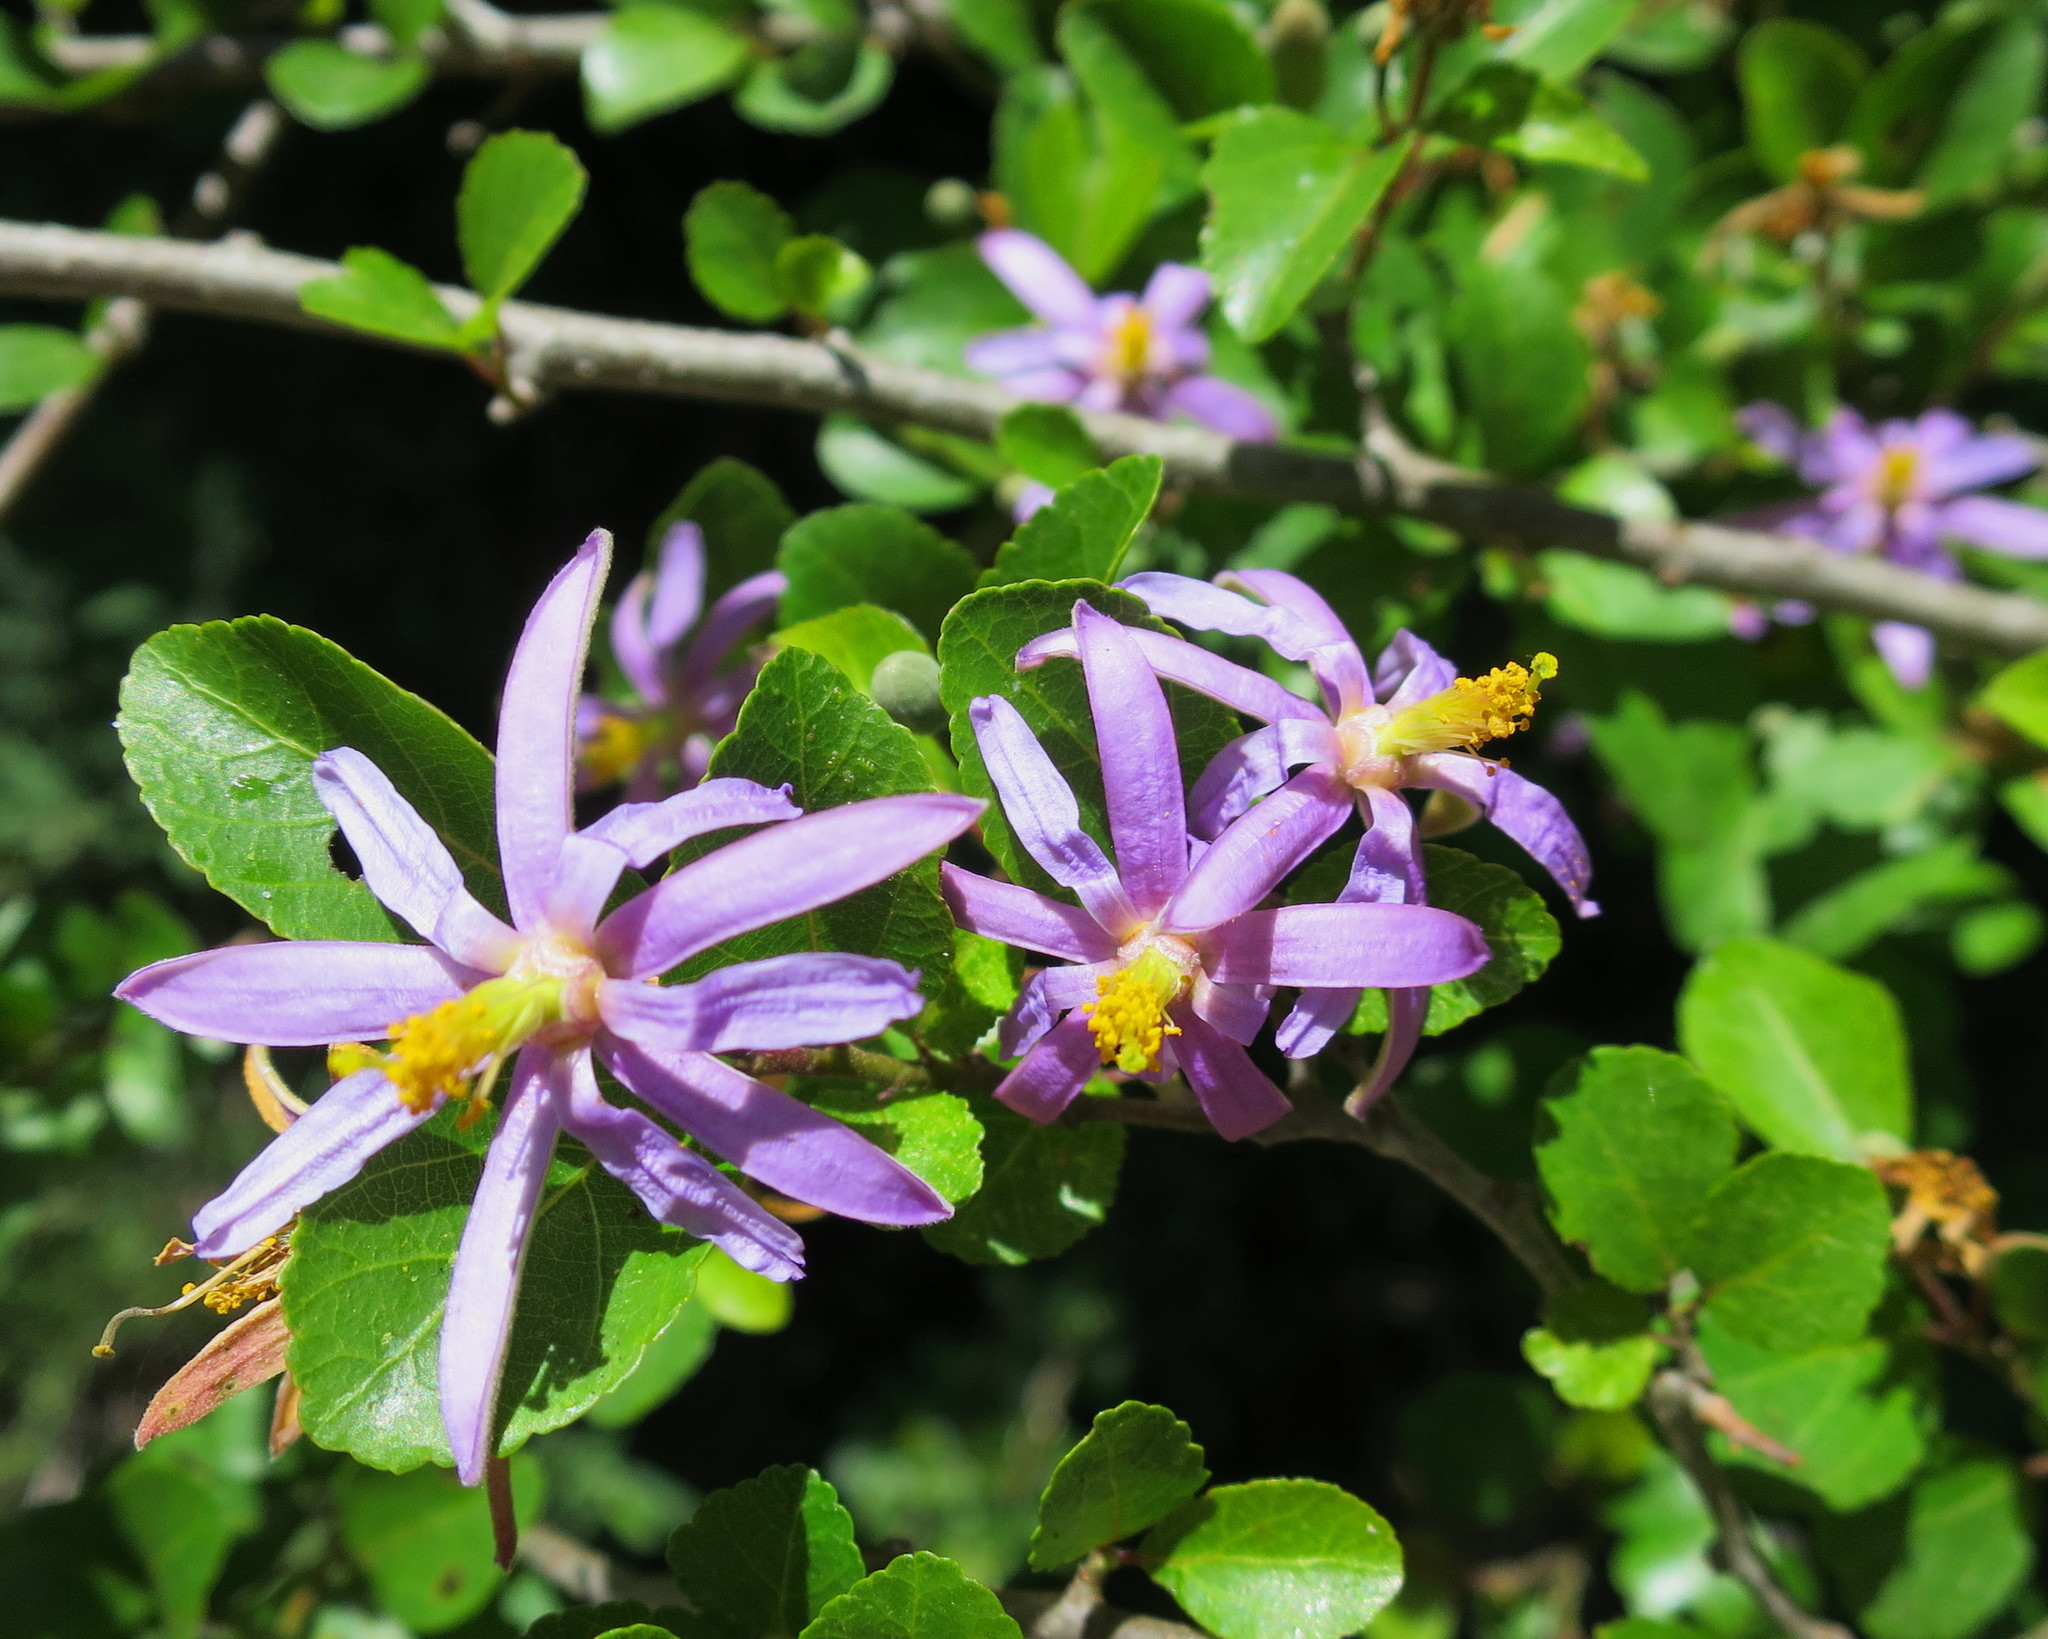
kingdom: Plantae
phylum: Tracheophyta
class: Magnoliopsida
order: Malvales
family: Malvaceae
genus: Grewia
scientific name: Grewia occidentalis
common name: Crossberry
